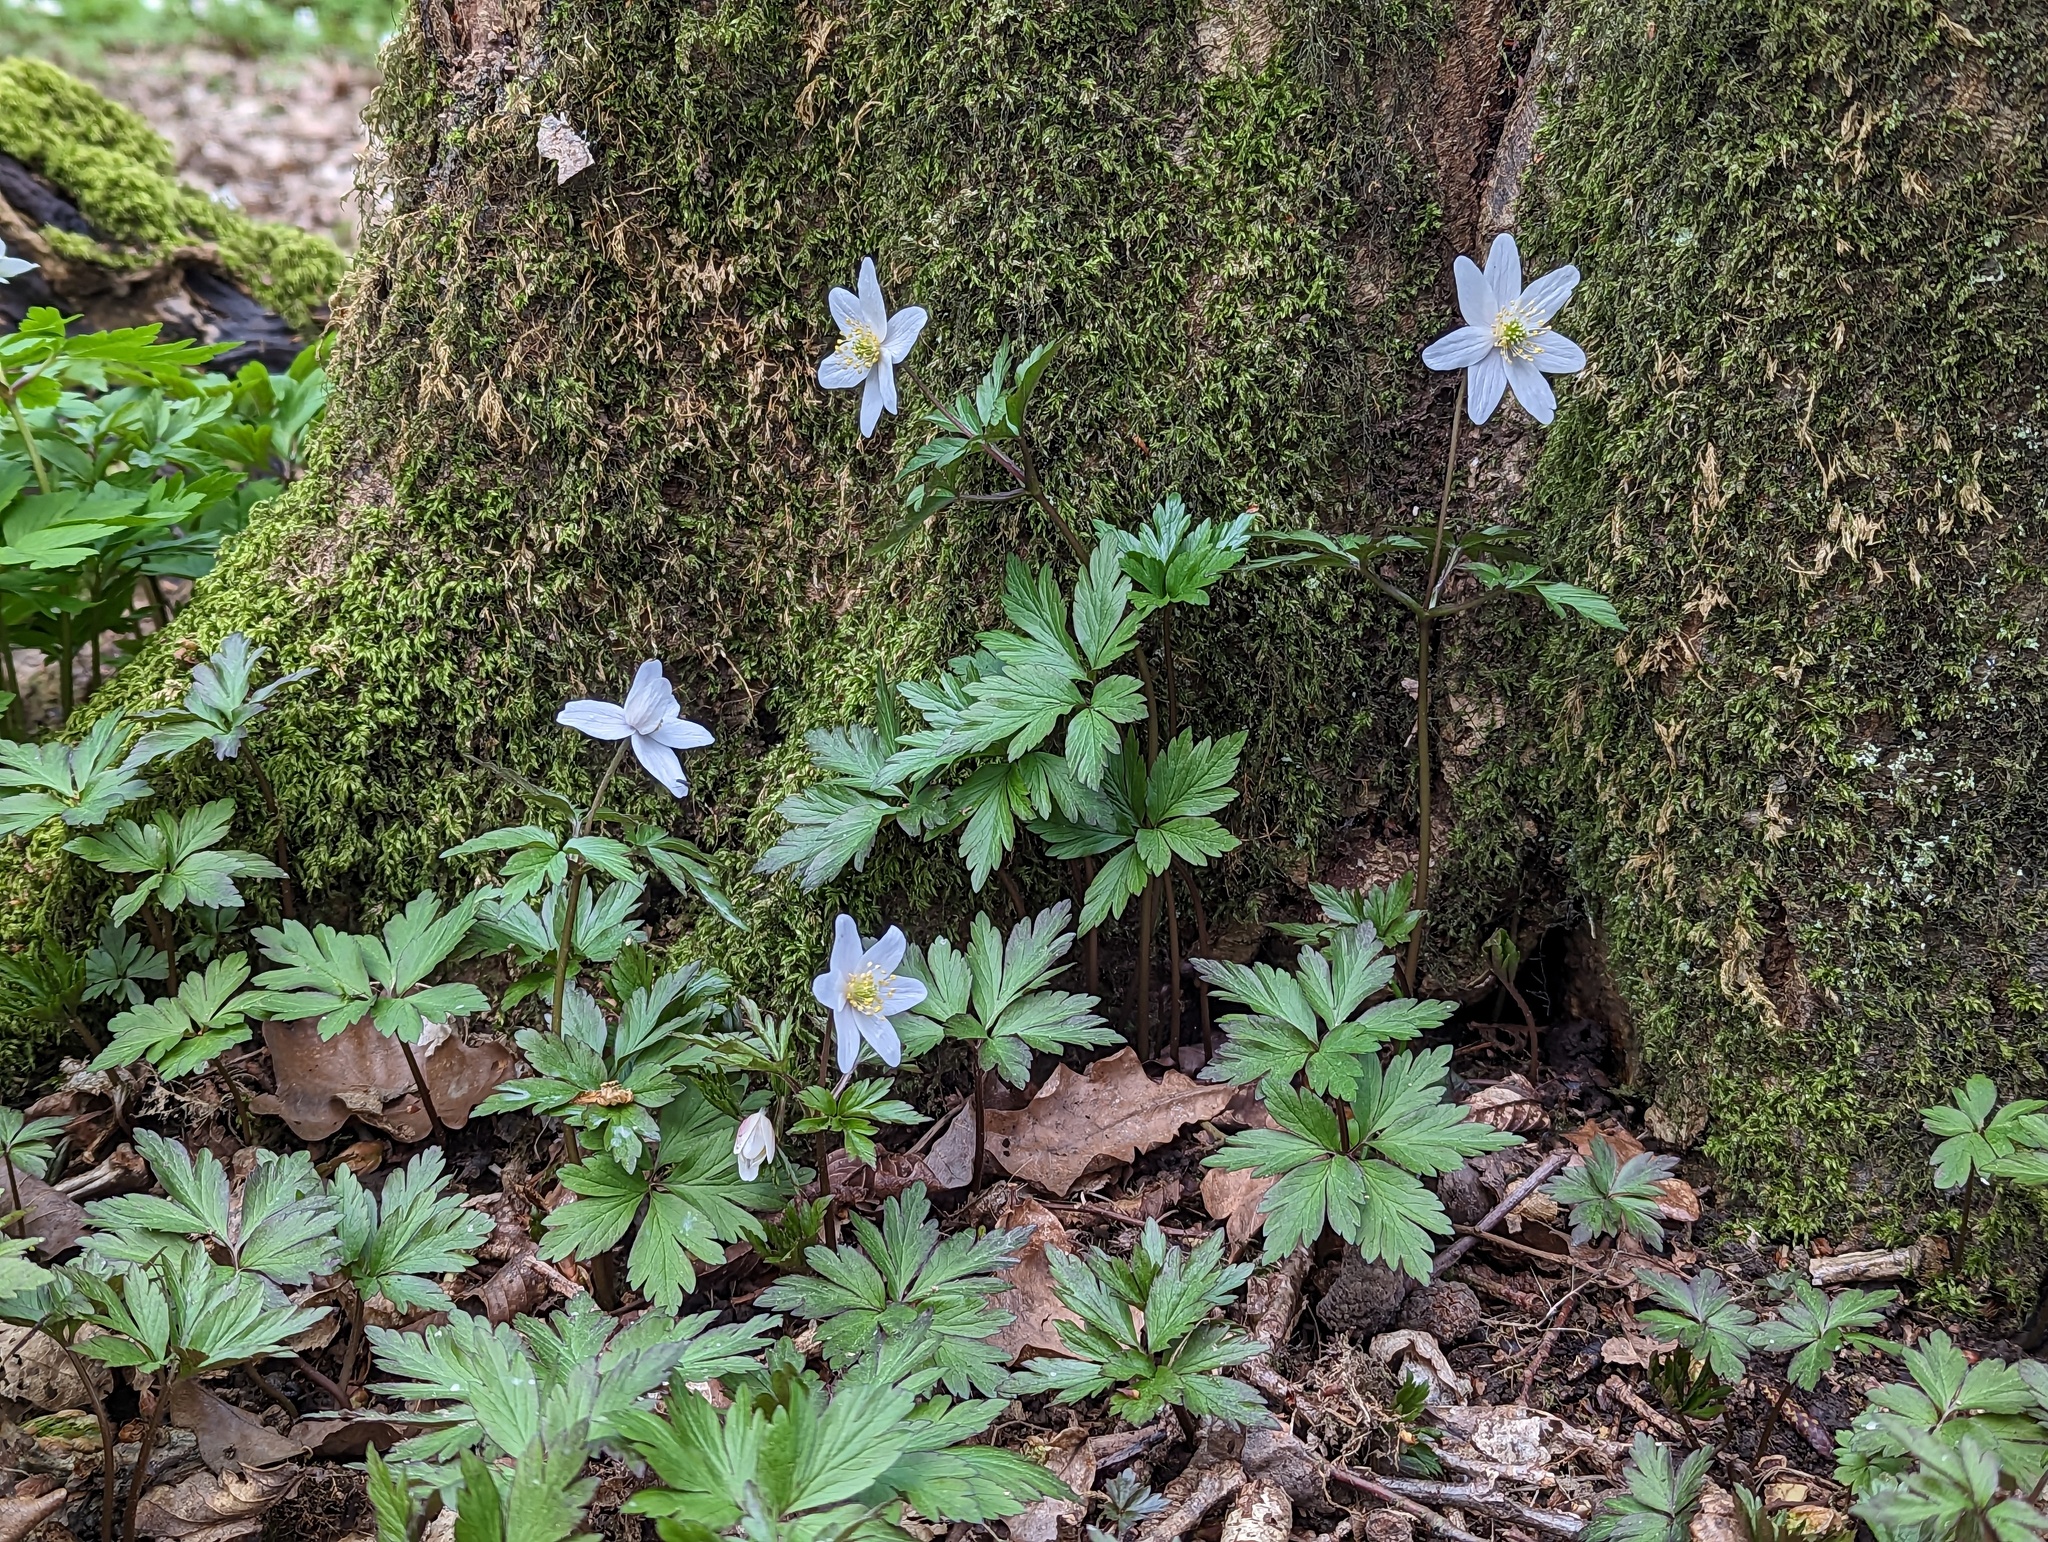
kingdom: Plantae
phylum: Tracheophyta
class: Magnoliopsida
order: Ranunculales
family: Ranunculaceae
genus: Anemone
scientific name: Anemone nemorosa
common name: Wood anemone
